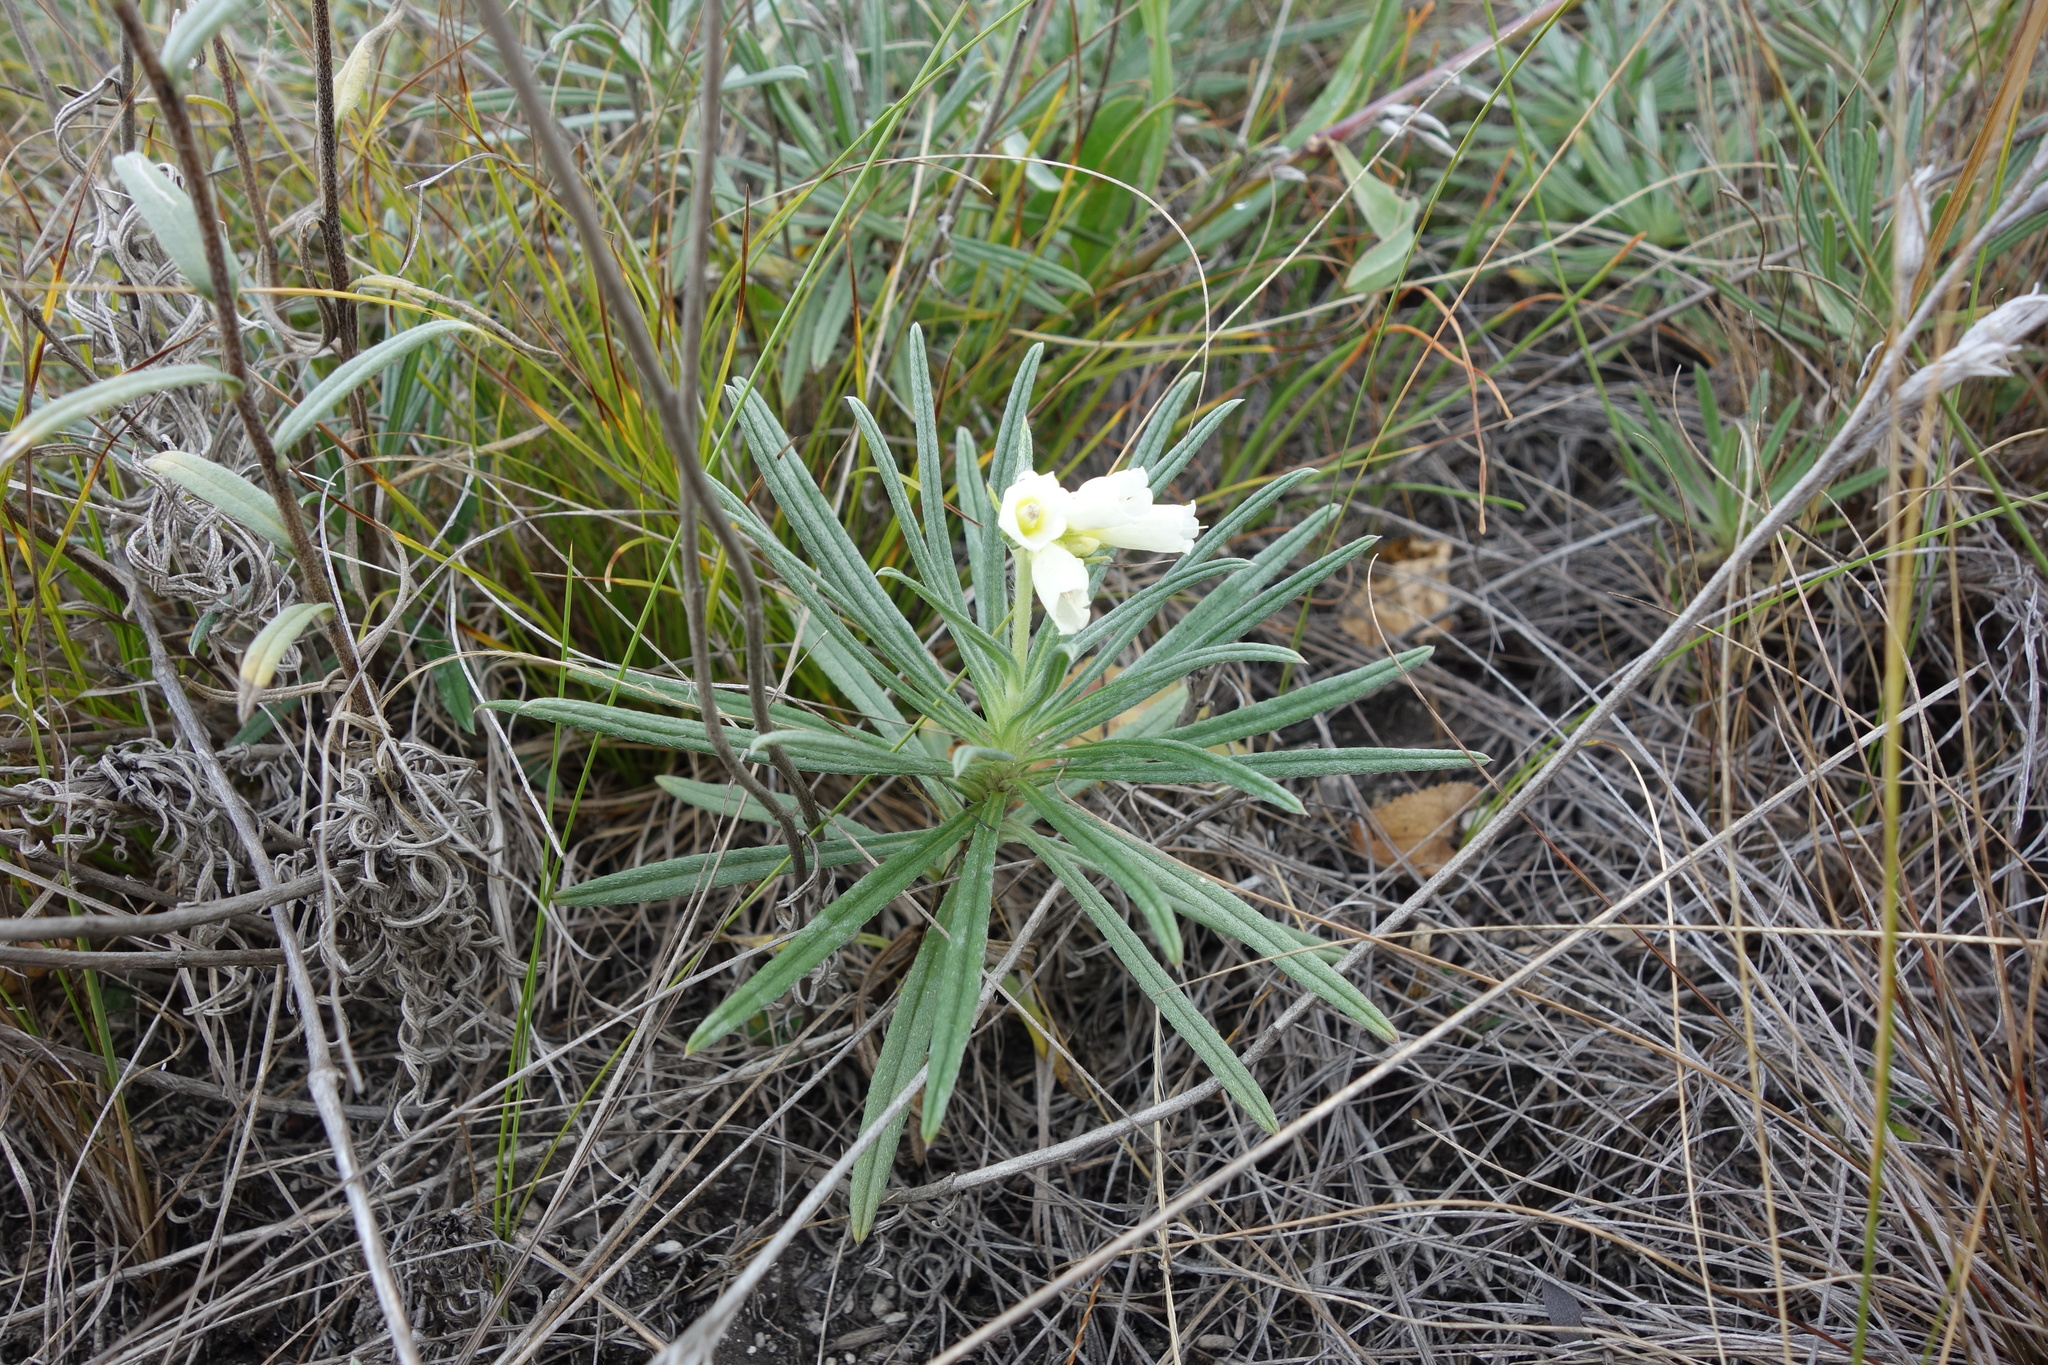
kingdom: Plantae
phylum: Tracheophyta
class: Magnoliopsida
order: Boraginales
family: Boraginaceae
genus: Onosma
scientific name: Onosma simplicissima
